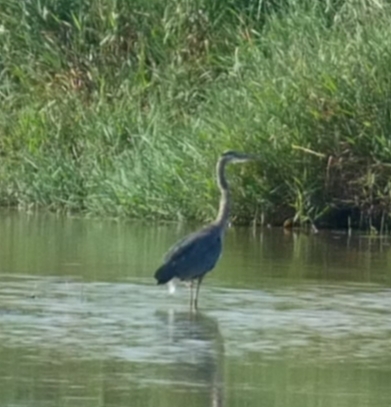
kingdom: Animalia
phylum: Chordata
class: Aves
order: Pelecaniformes
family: Ardeidae
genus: Ardea
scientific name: Ardea herodias
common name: Great blue heron
